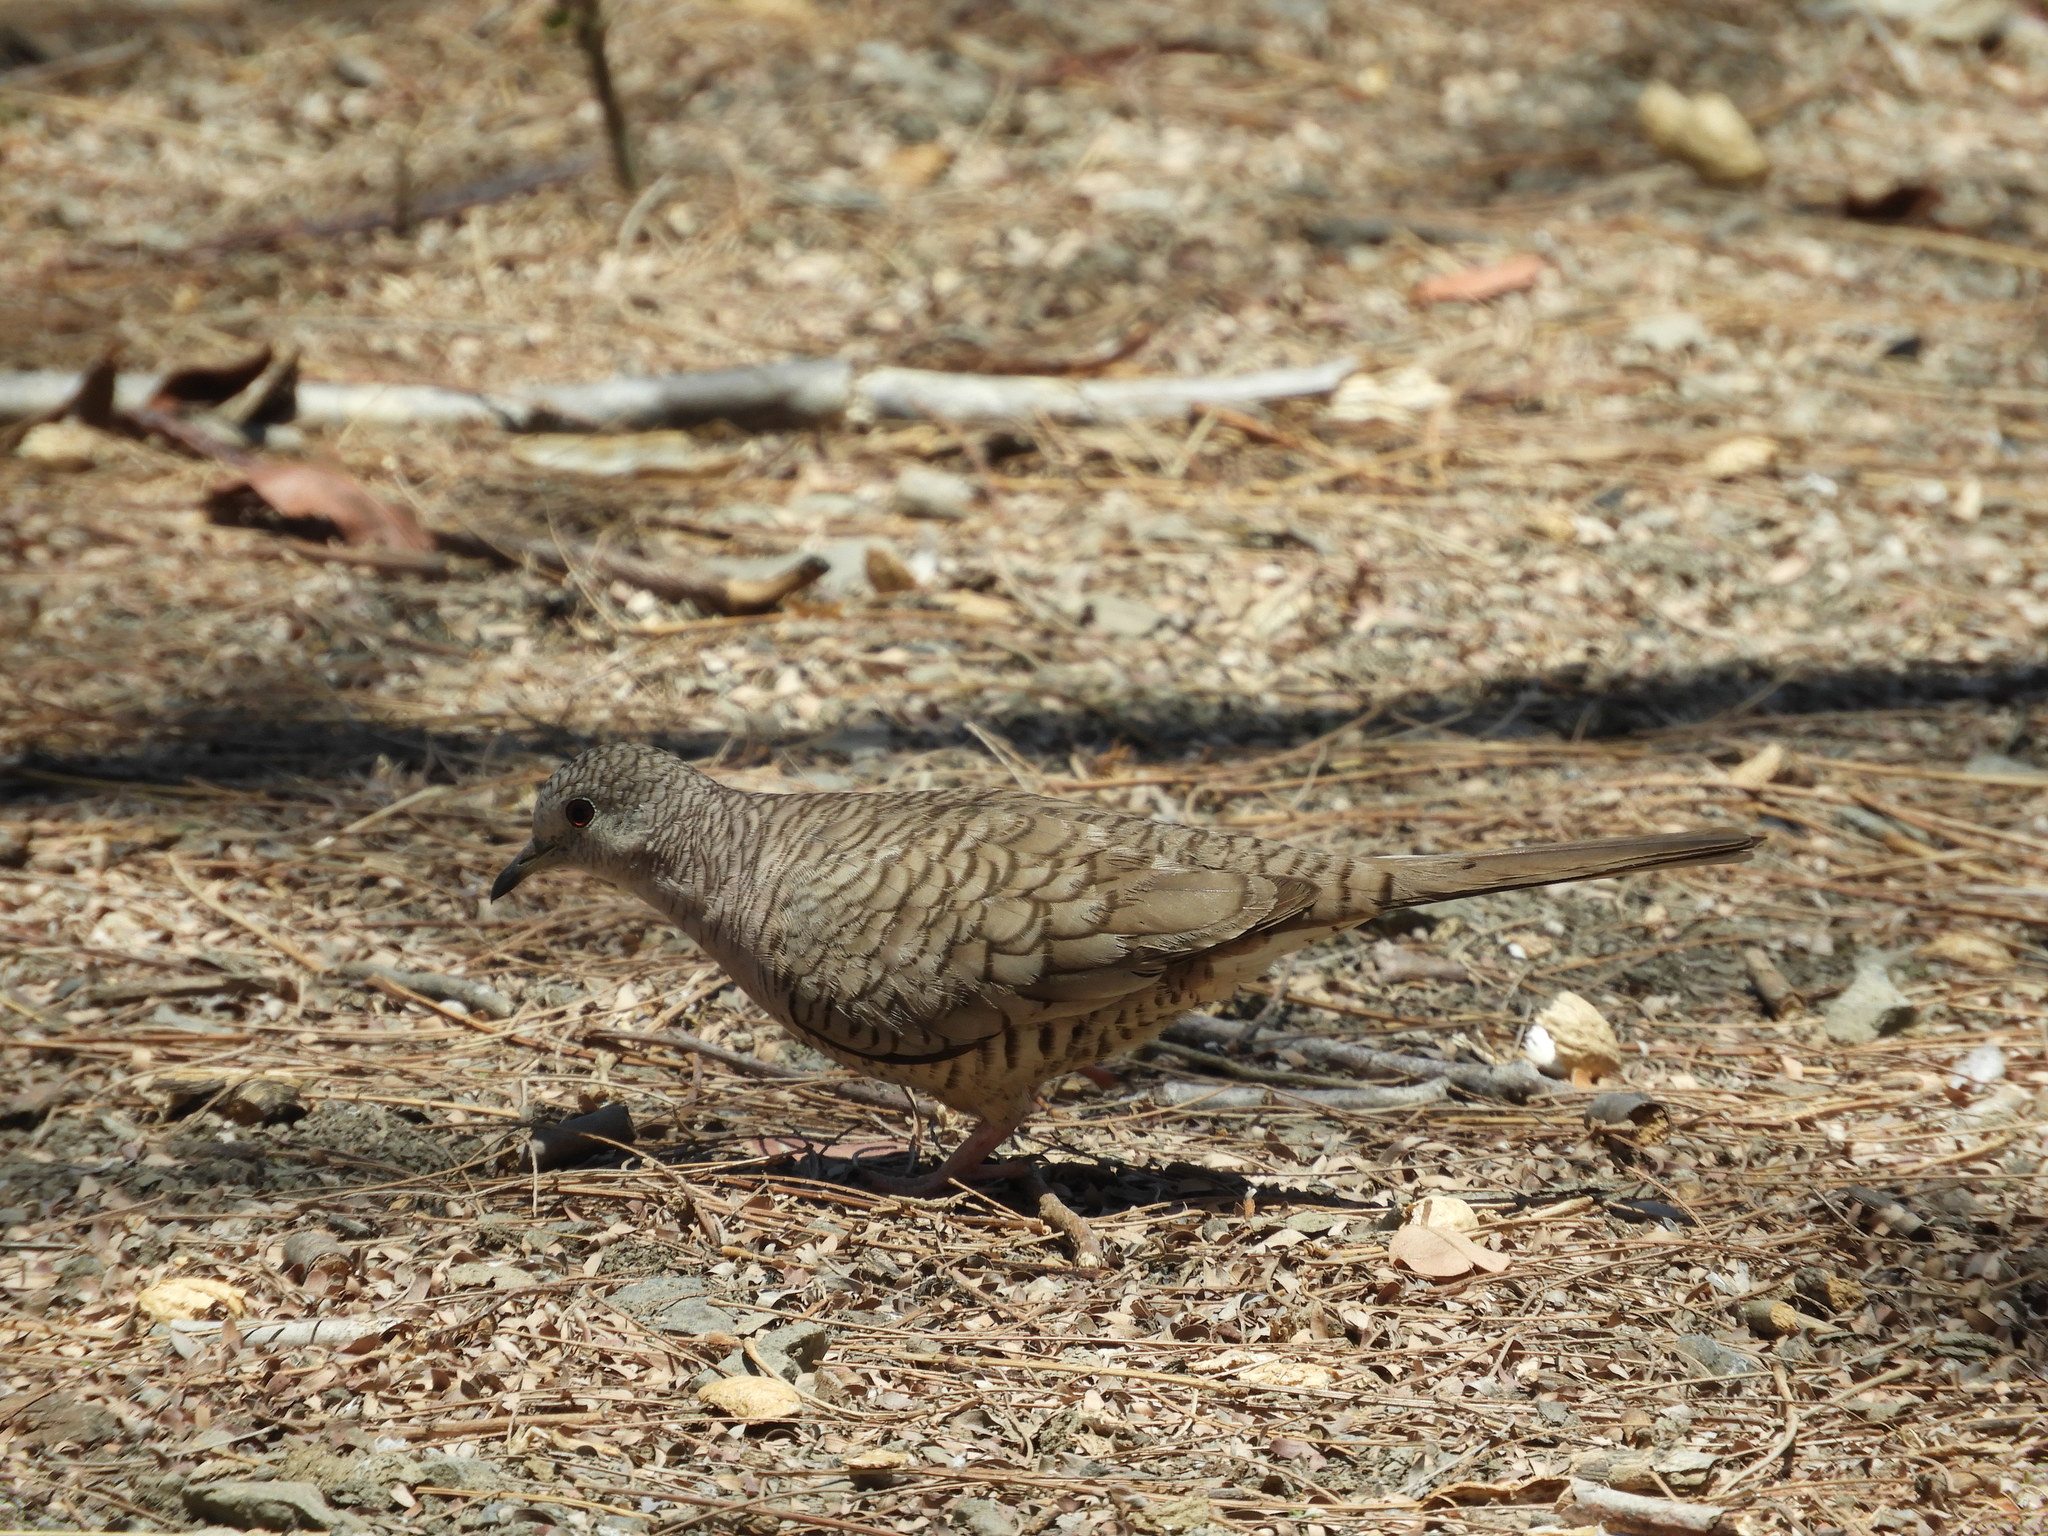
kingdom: Animalia
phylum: Chordata
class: Aves
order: Columbiformes
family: Columbidae
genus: Columbina
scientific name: Columbina inca
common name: Inca dove
